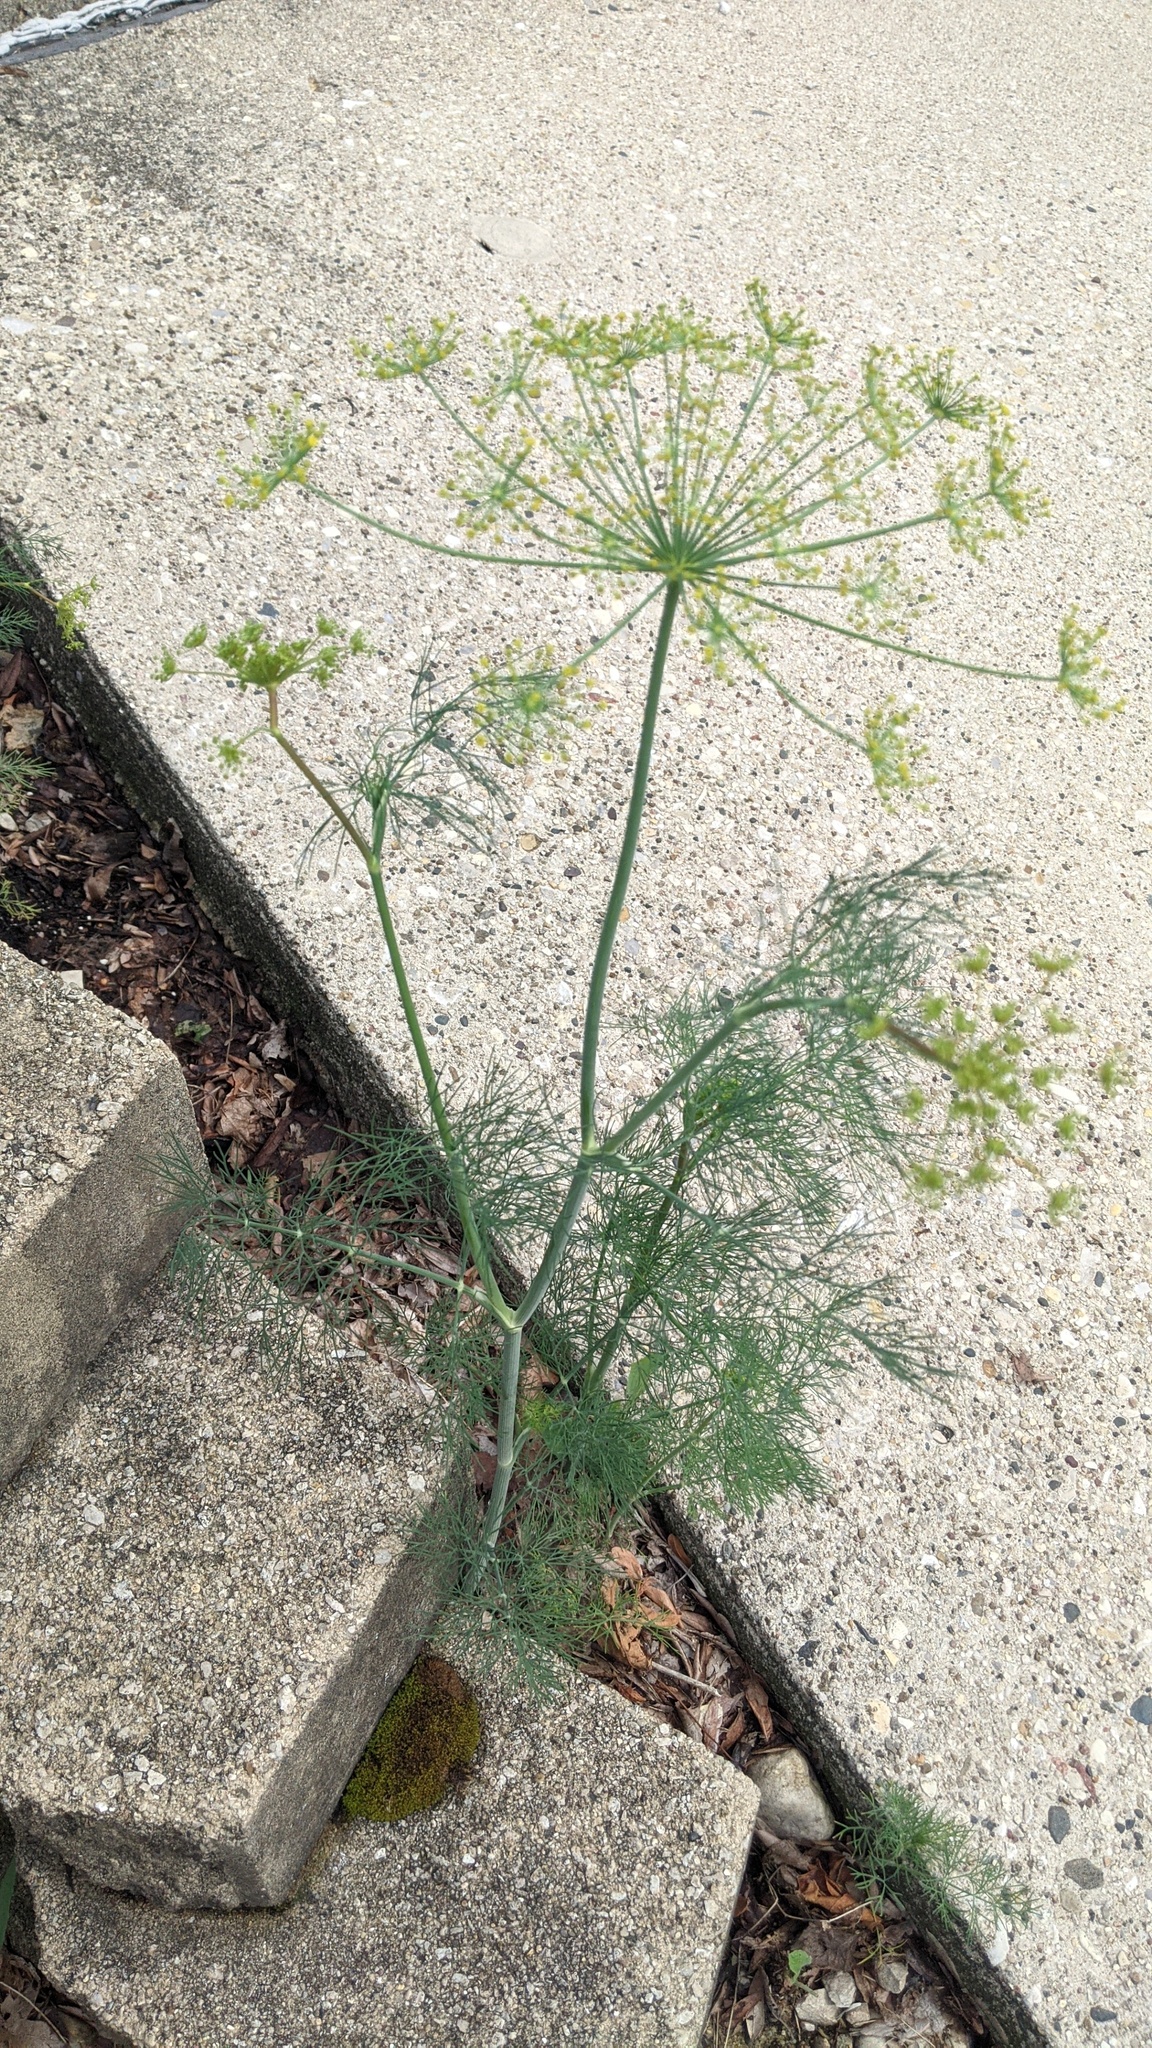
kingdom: Plantae
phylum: Tracheophyta
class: Magnoliopsida
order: Apiales
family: Apiaceae
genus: Anethum
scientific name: Anethum graveolens
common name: Dill
